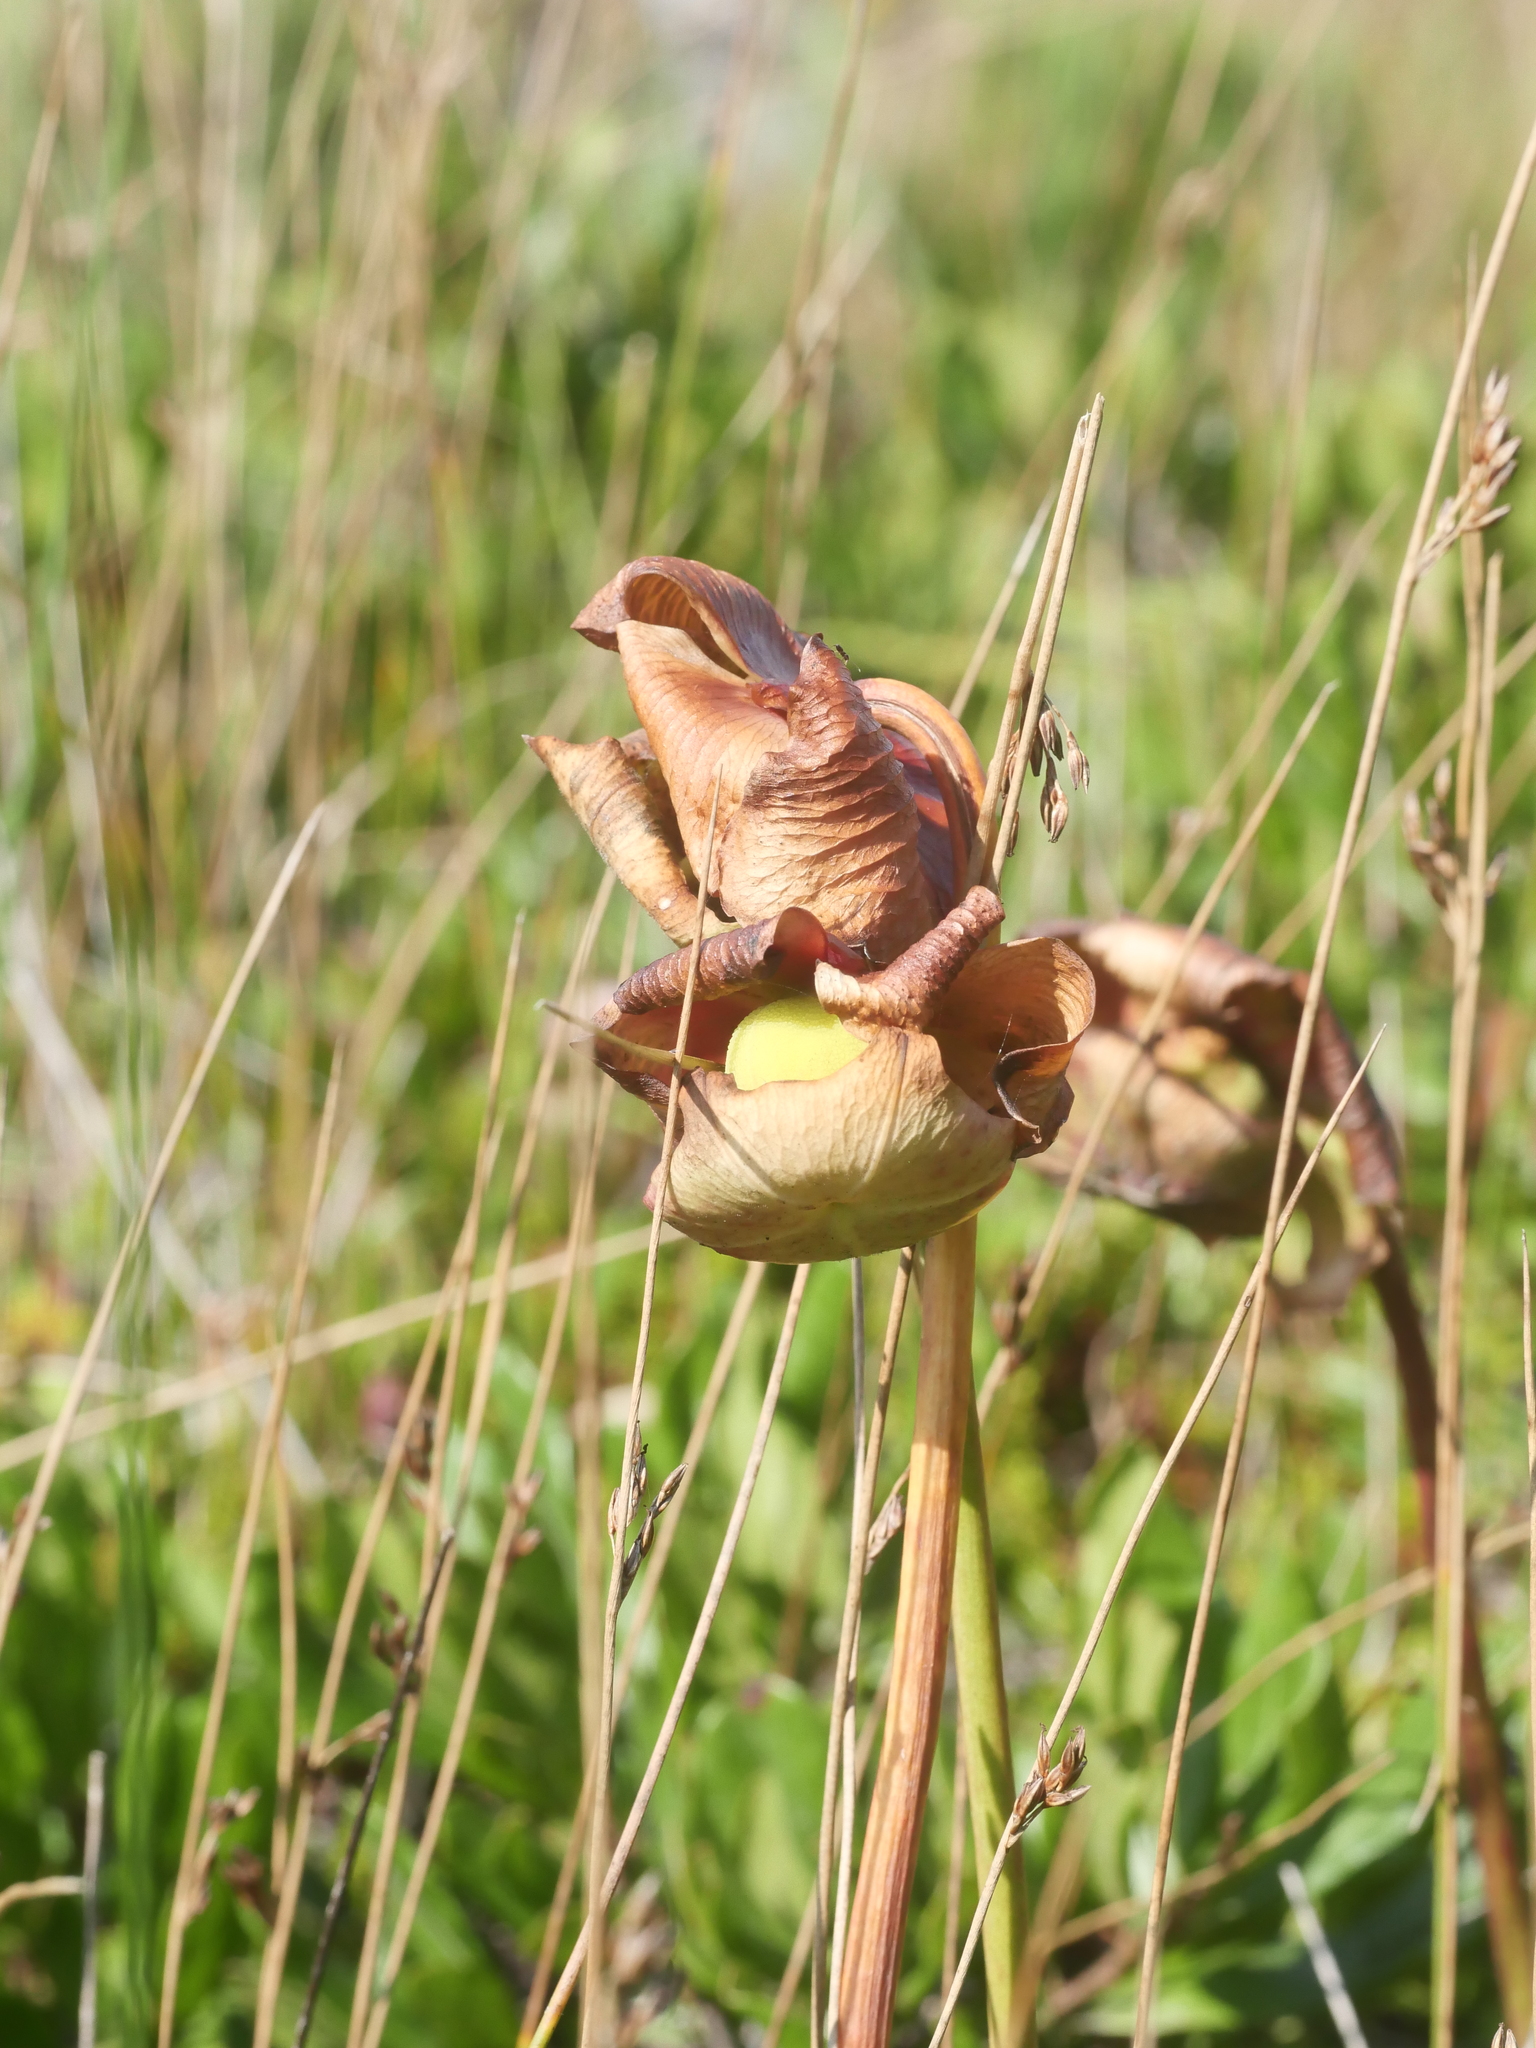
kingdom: Plantae
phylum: Tracheophyta
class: Magnoliopsida
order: Ericales
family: Sarraceniaceae
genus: Sarracenia
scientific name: Sarracenia purpurea
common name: Pitcherplant
